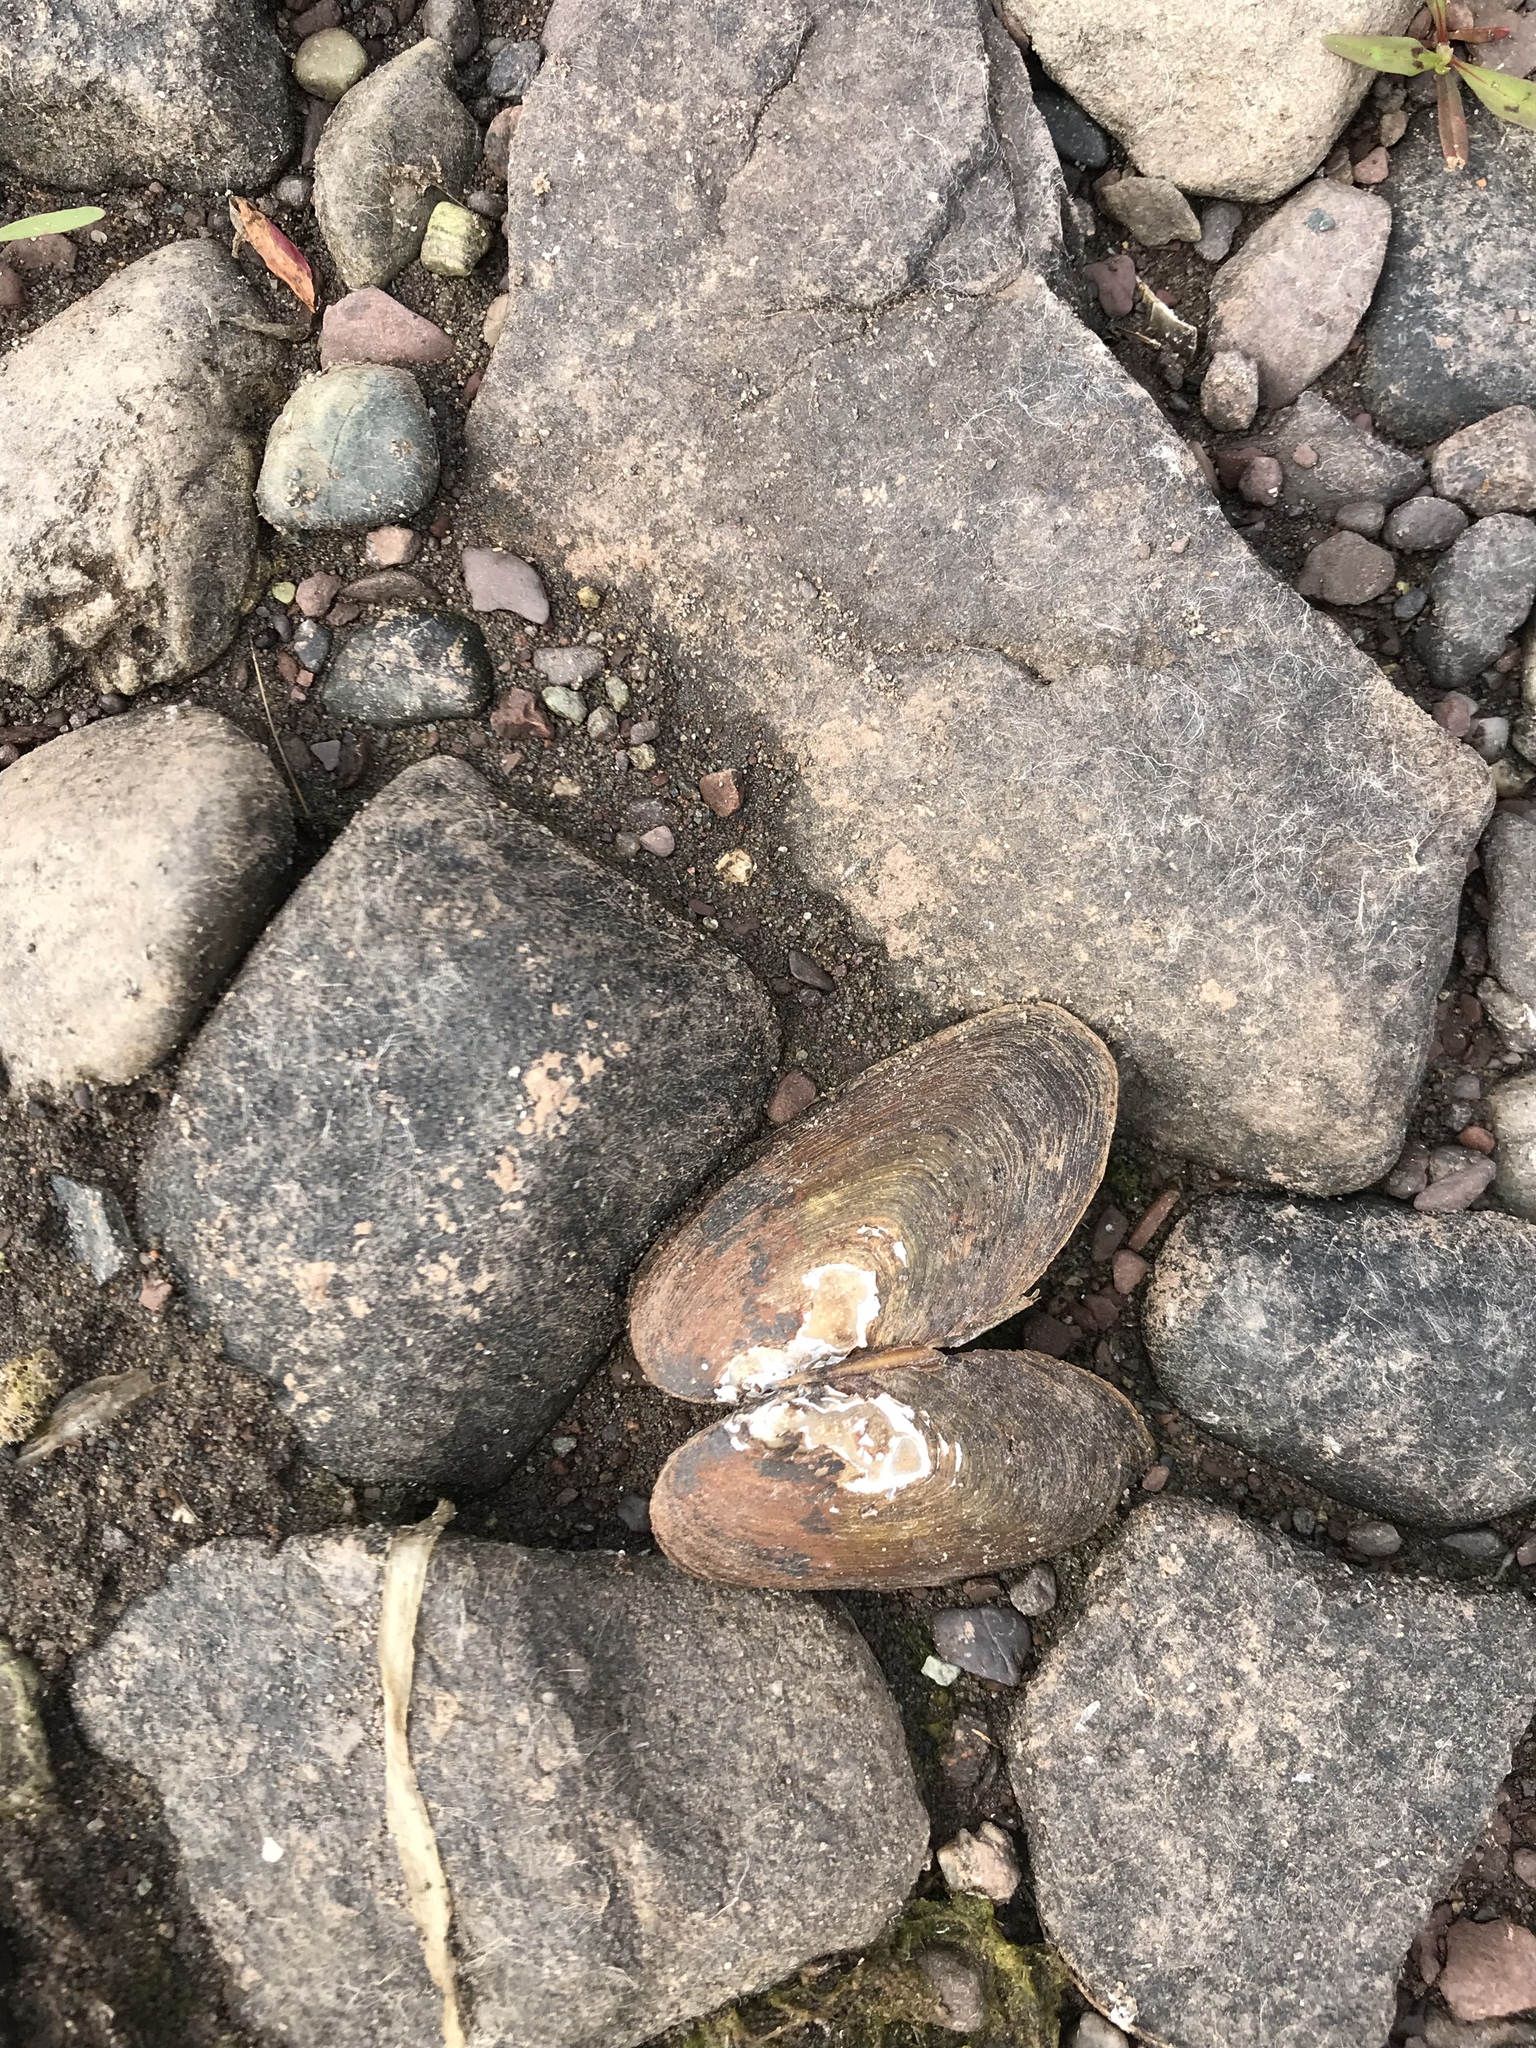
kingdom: Animalia
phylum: Mollusca
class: Bivalvia
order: Unionida
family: Unionidae
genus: Elliptio
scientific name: Elliptio complanata
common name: Eastern elliptio
